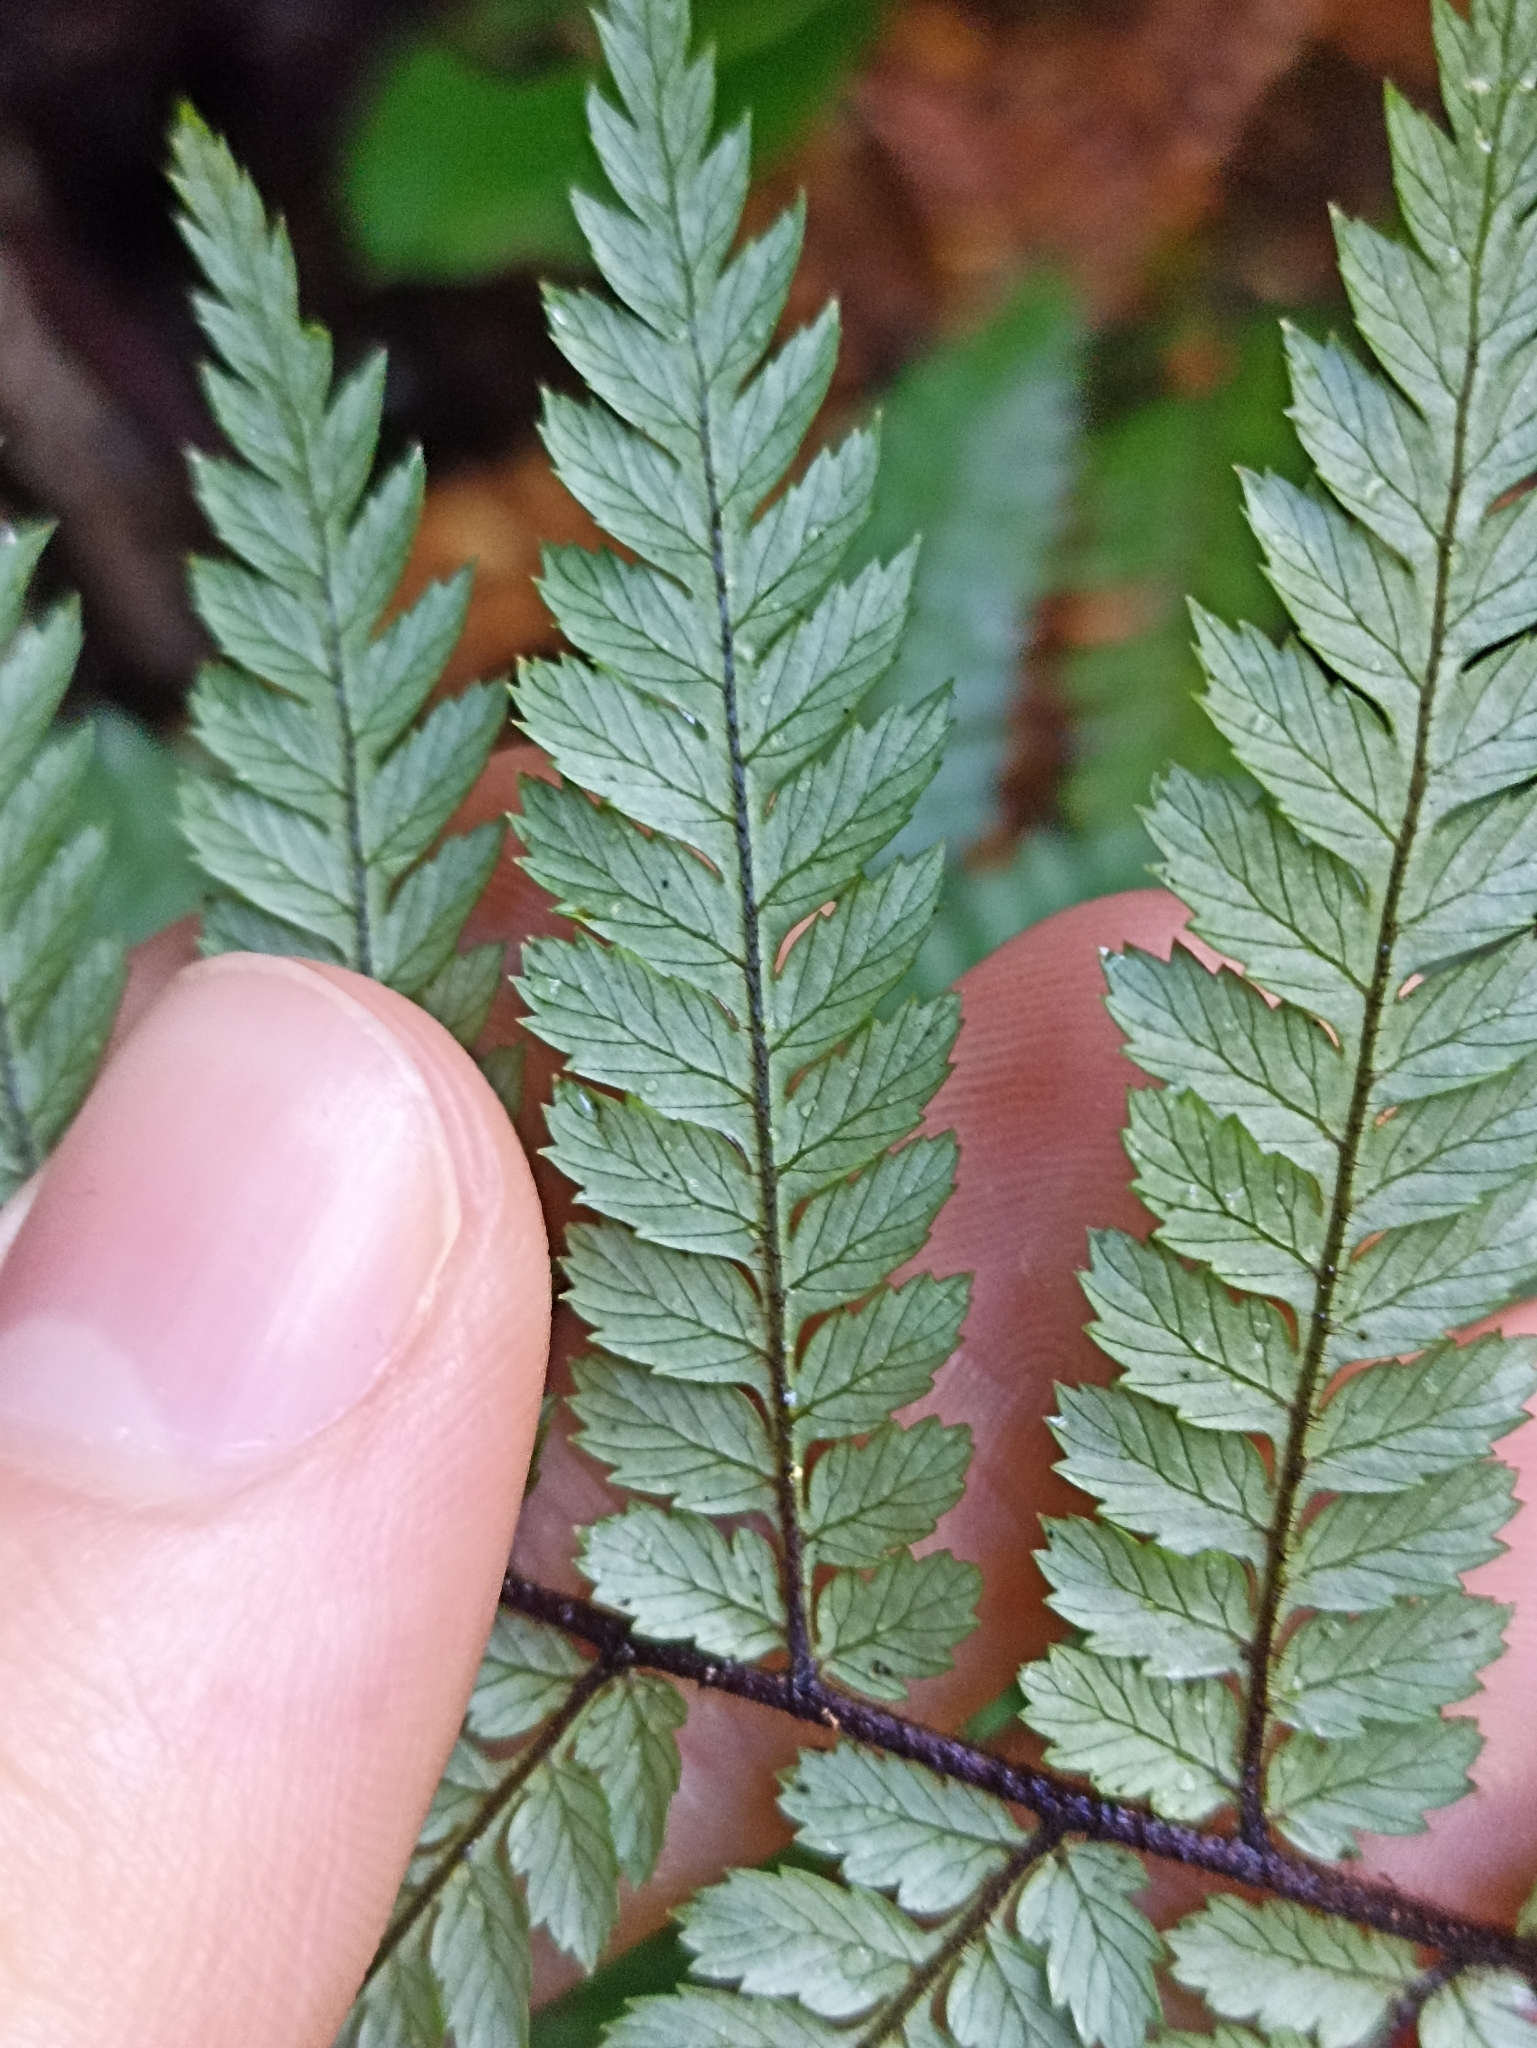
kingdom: Plantae
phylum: Tracheophyta
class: Polypodiopsida
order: Cyatheales
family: Dicksoniaceae
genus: Dicksonia
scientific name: Dicksonia squarrosa
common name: Hard treefern
